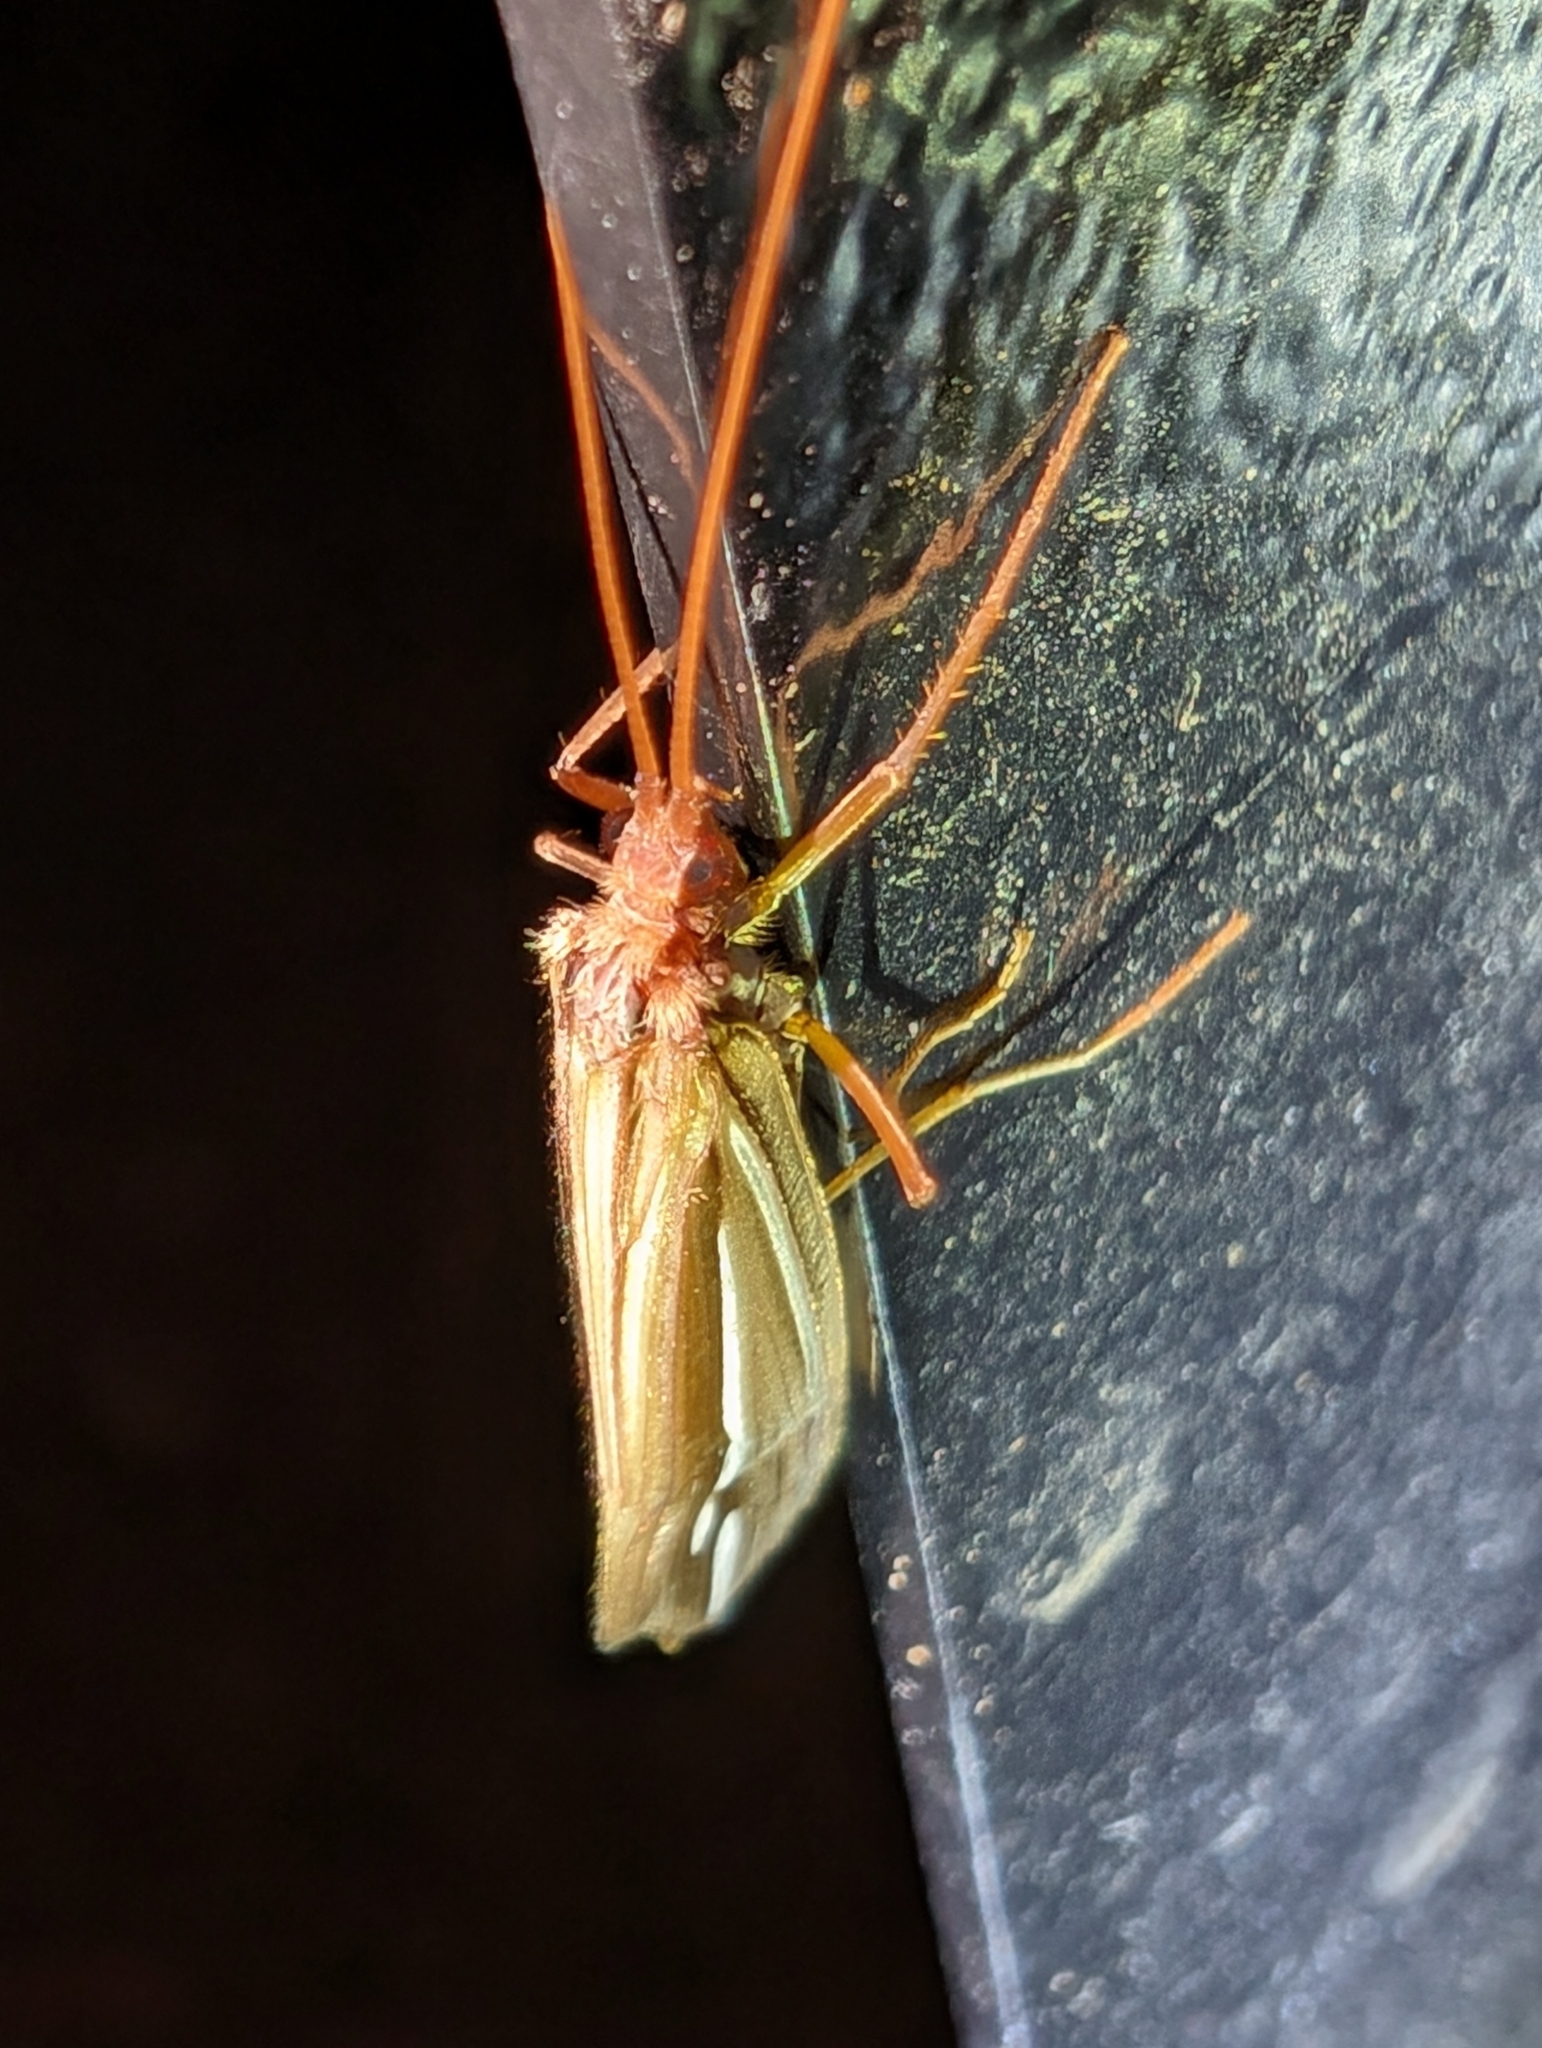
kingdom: Animalia
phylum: Arthropoda
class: Insecta
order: Trichoptera
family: Limnephilidae
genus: Psychoglypha
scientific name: Psychoglypha bella
